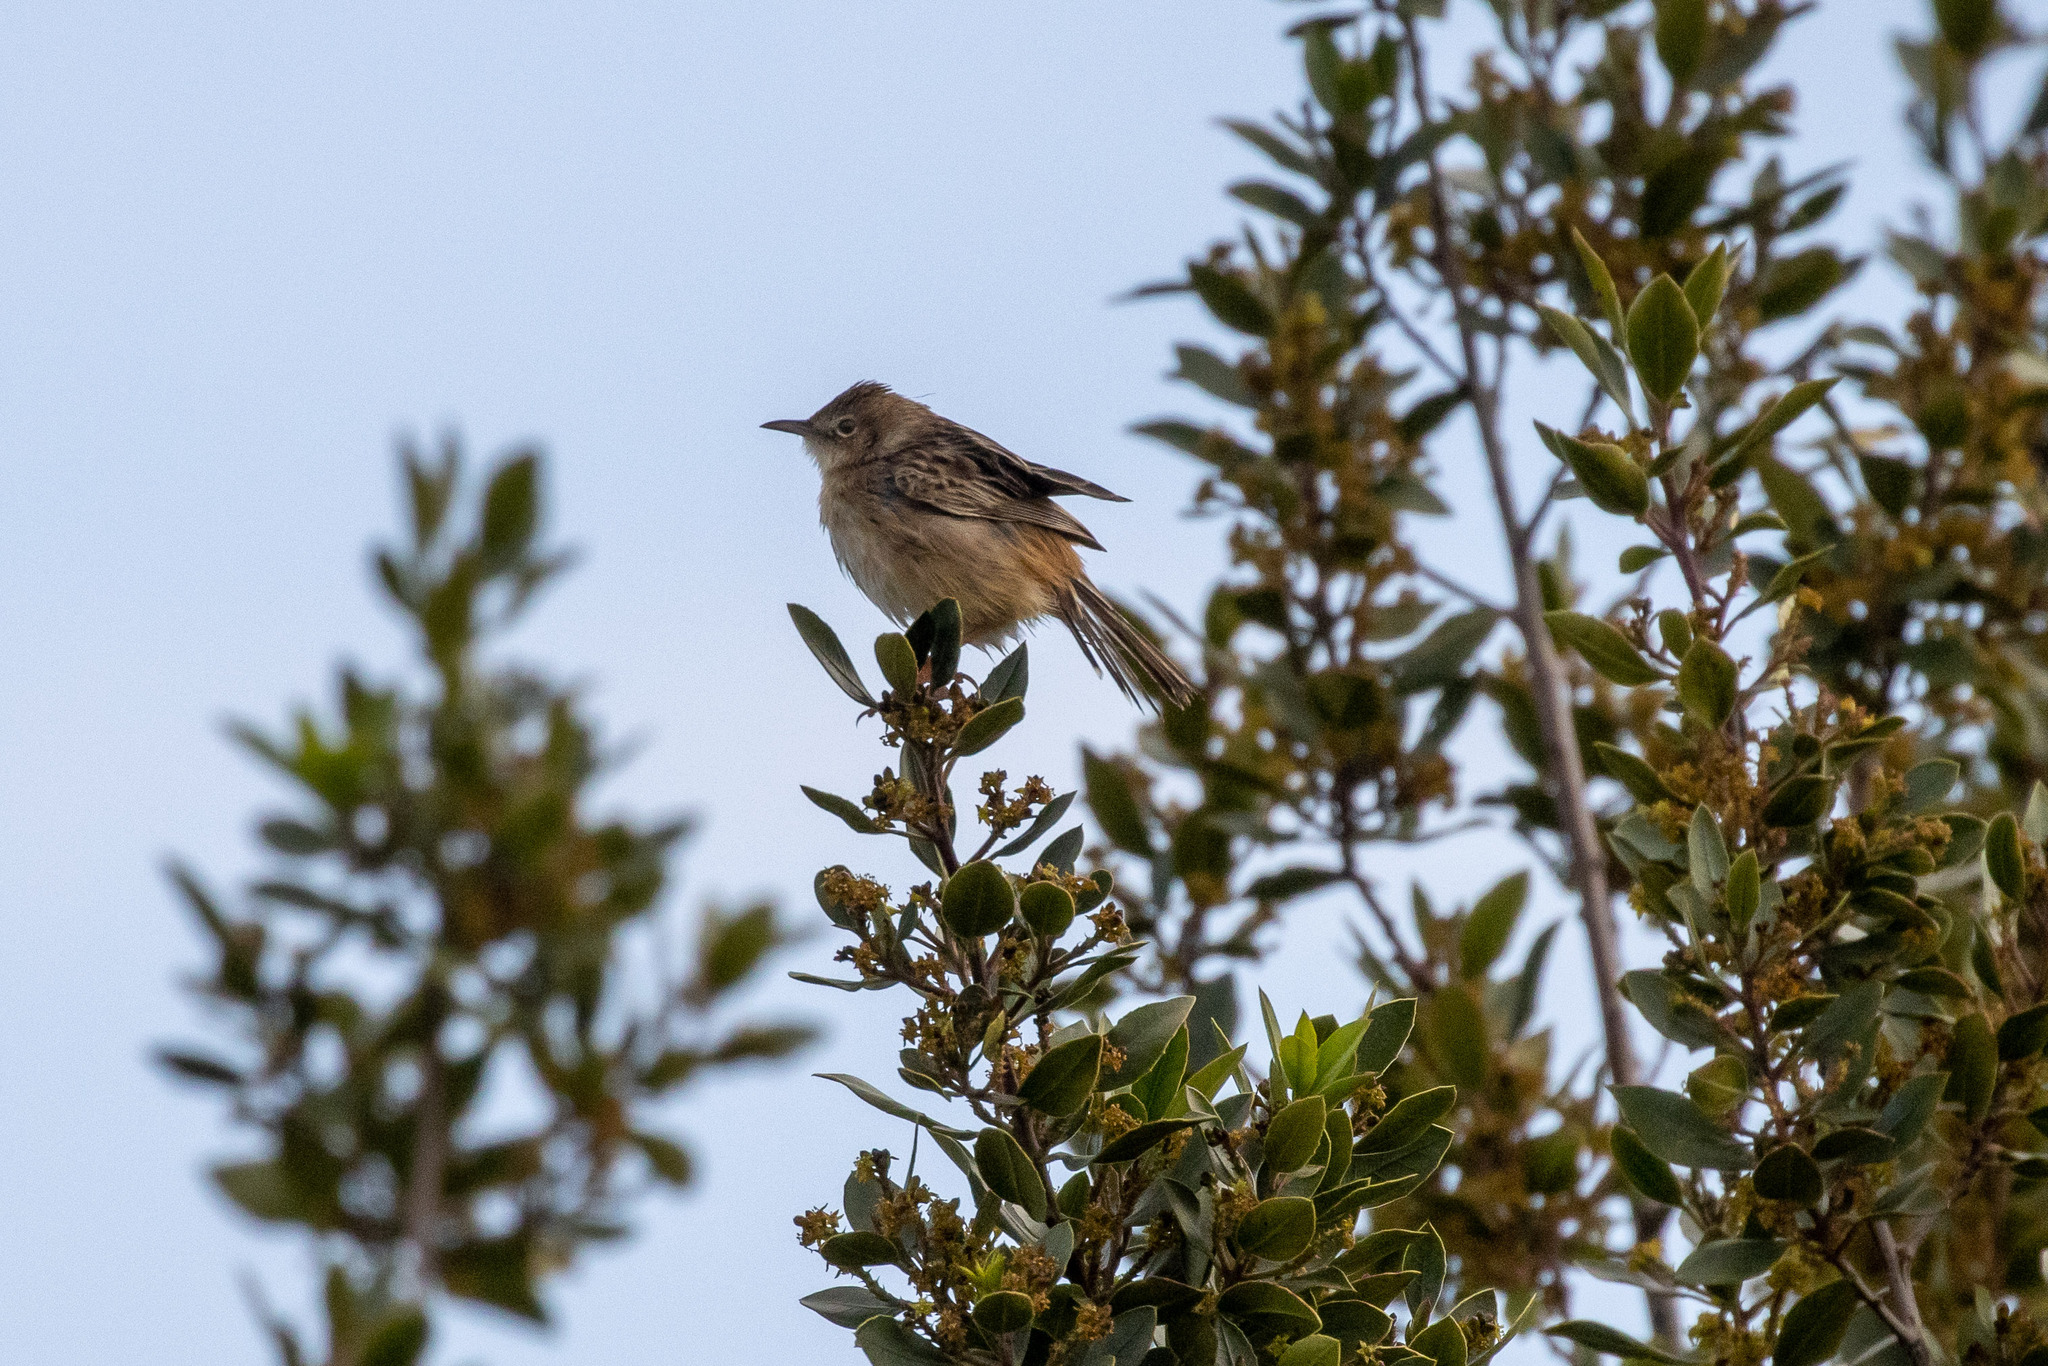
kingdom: Animalia
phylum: Chordata
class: Aves
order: Passeriformes
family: Cisticolidae
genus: Cisticola
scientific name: Cisticola juncidis
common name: Zitting cisticola
